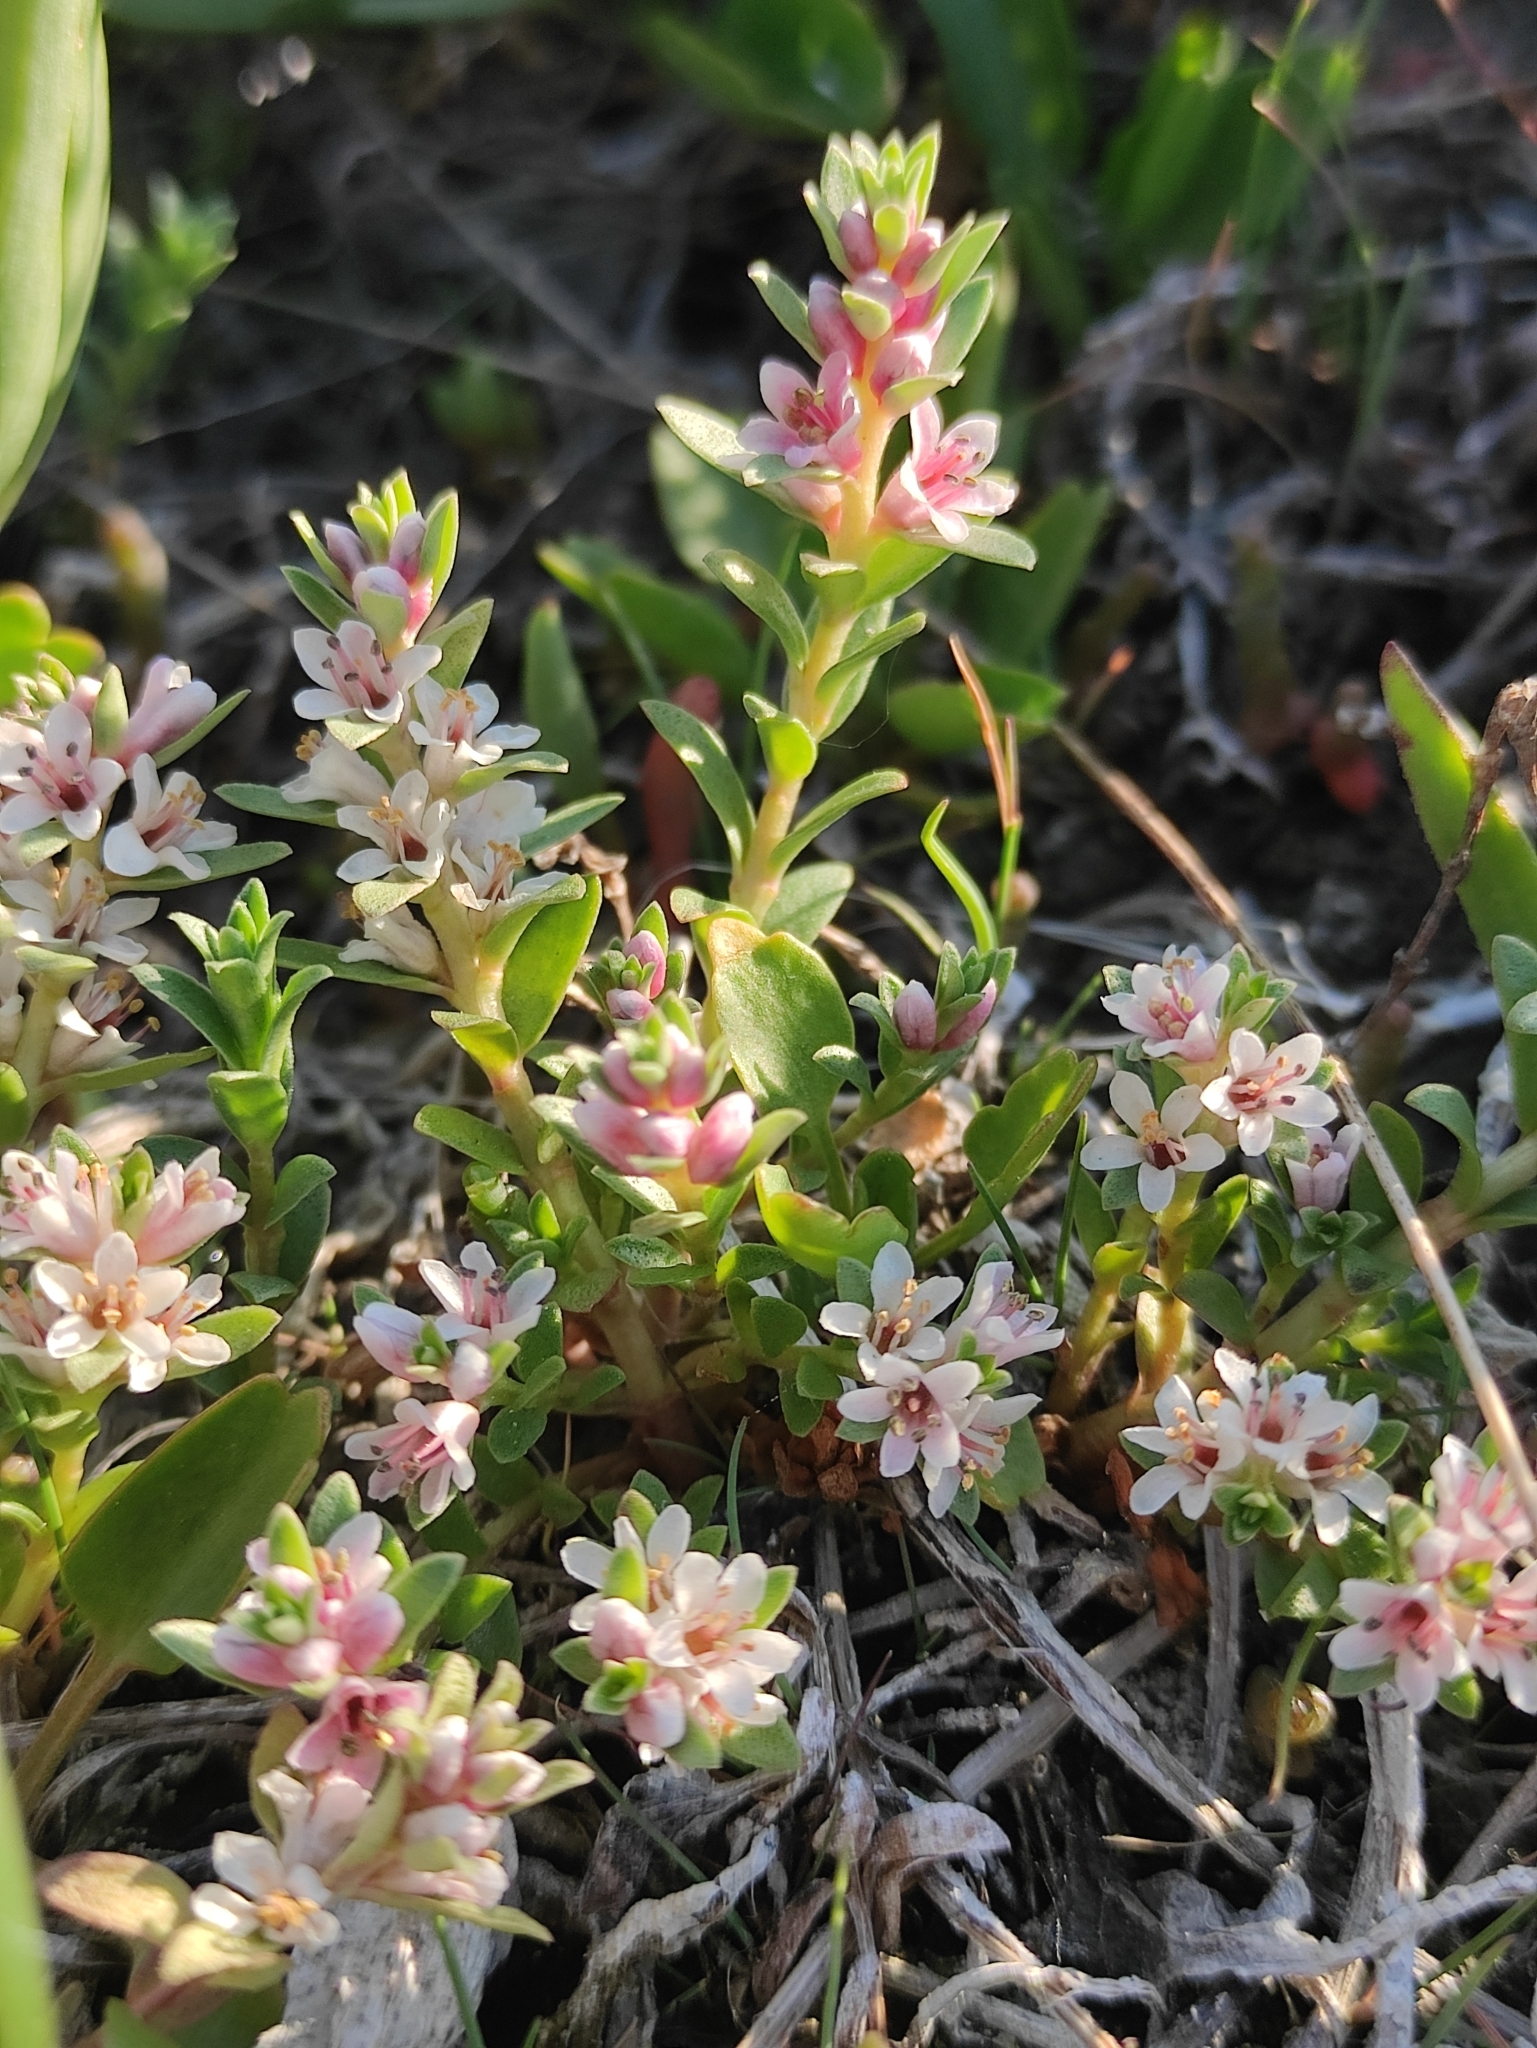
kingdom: Plantae
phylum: Tracheophyta
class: Magnoliopsida
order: Ericales
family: Primulaceae
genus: Lysimachia
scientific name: Lysimachia maritima
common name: Sea milkwort
